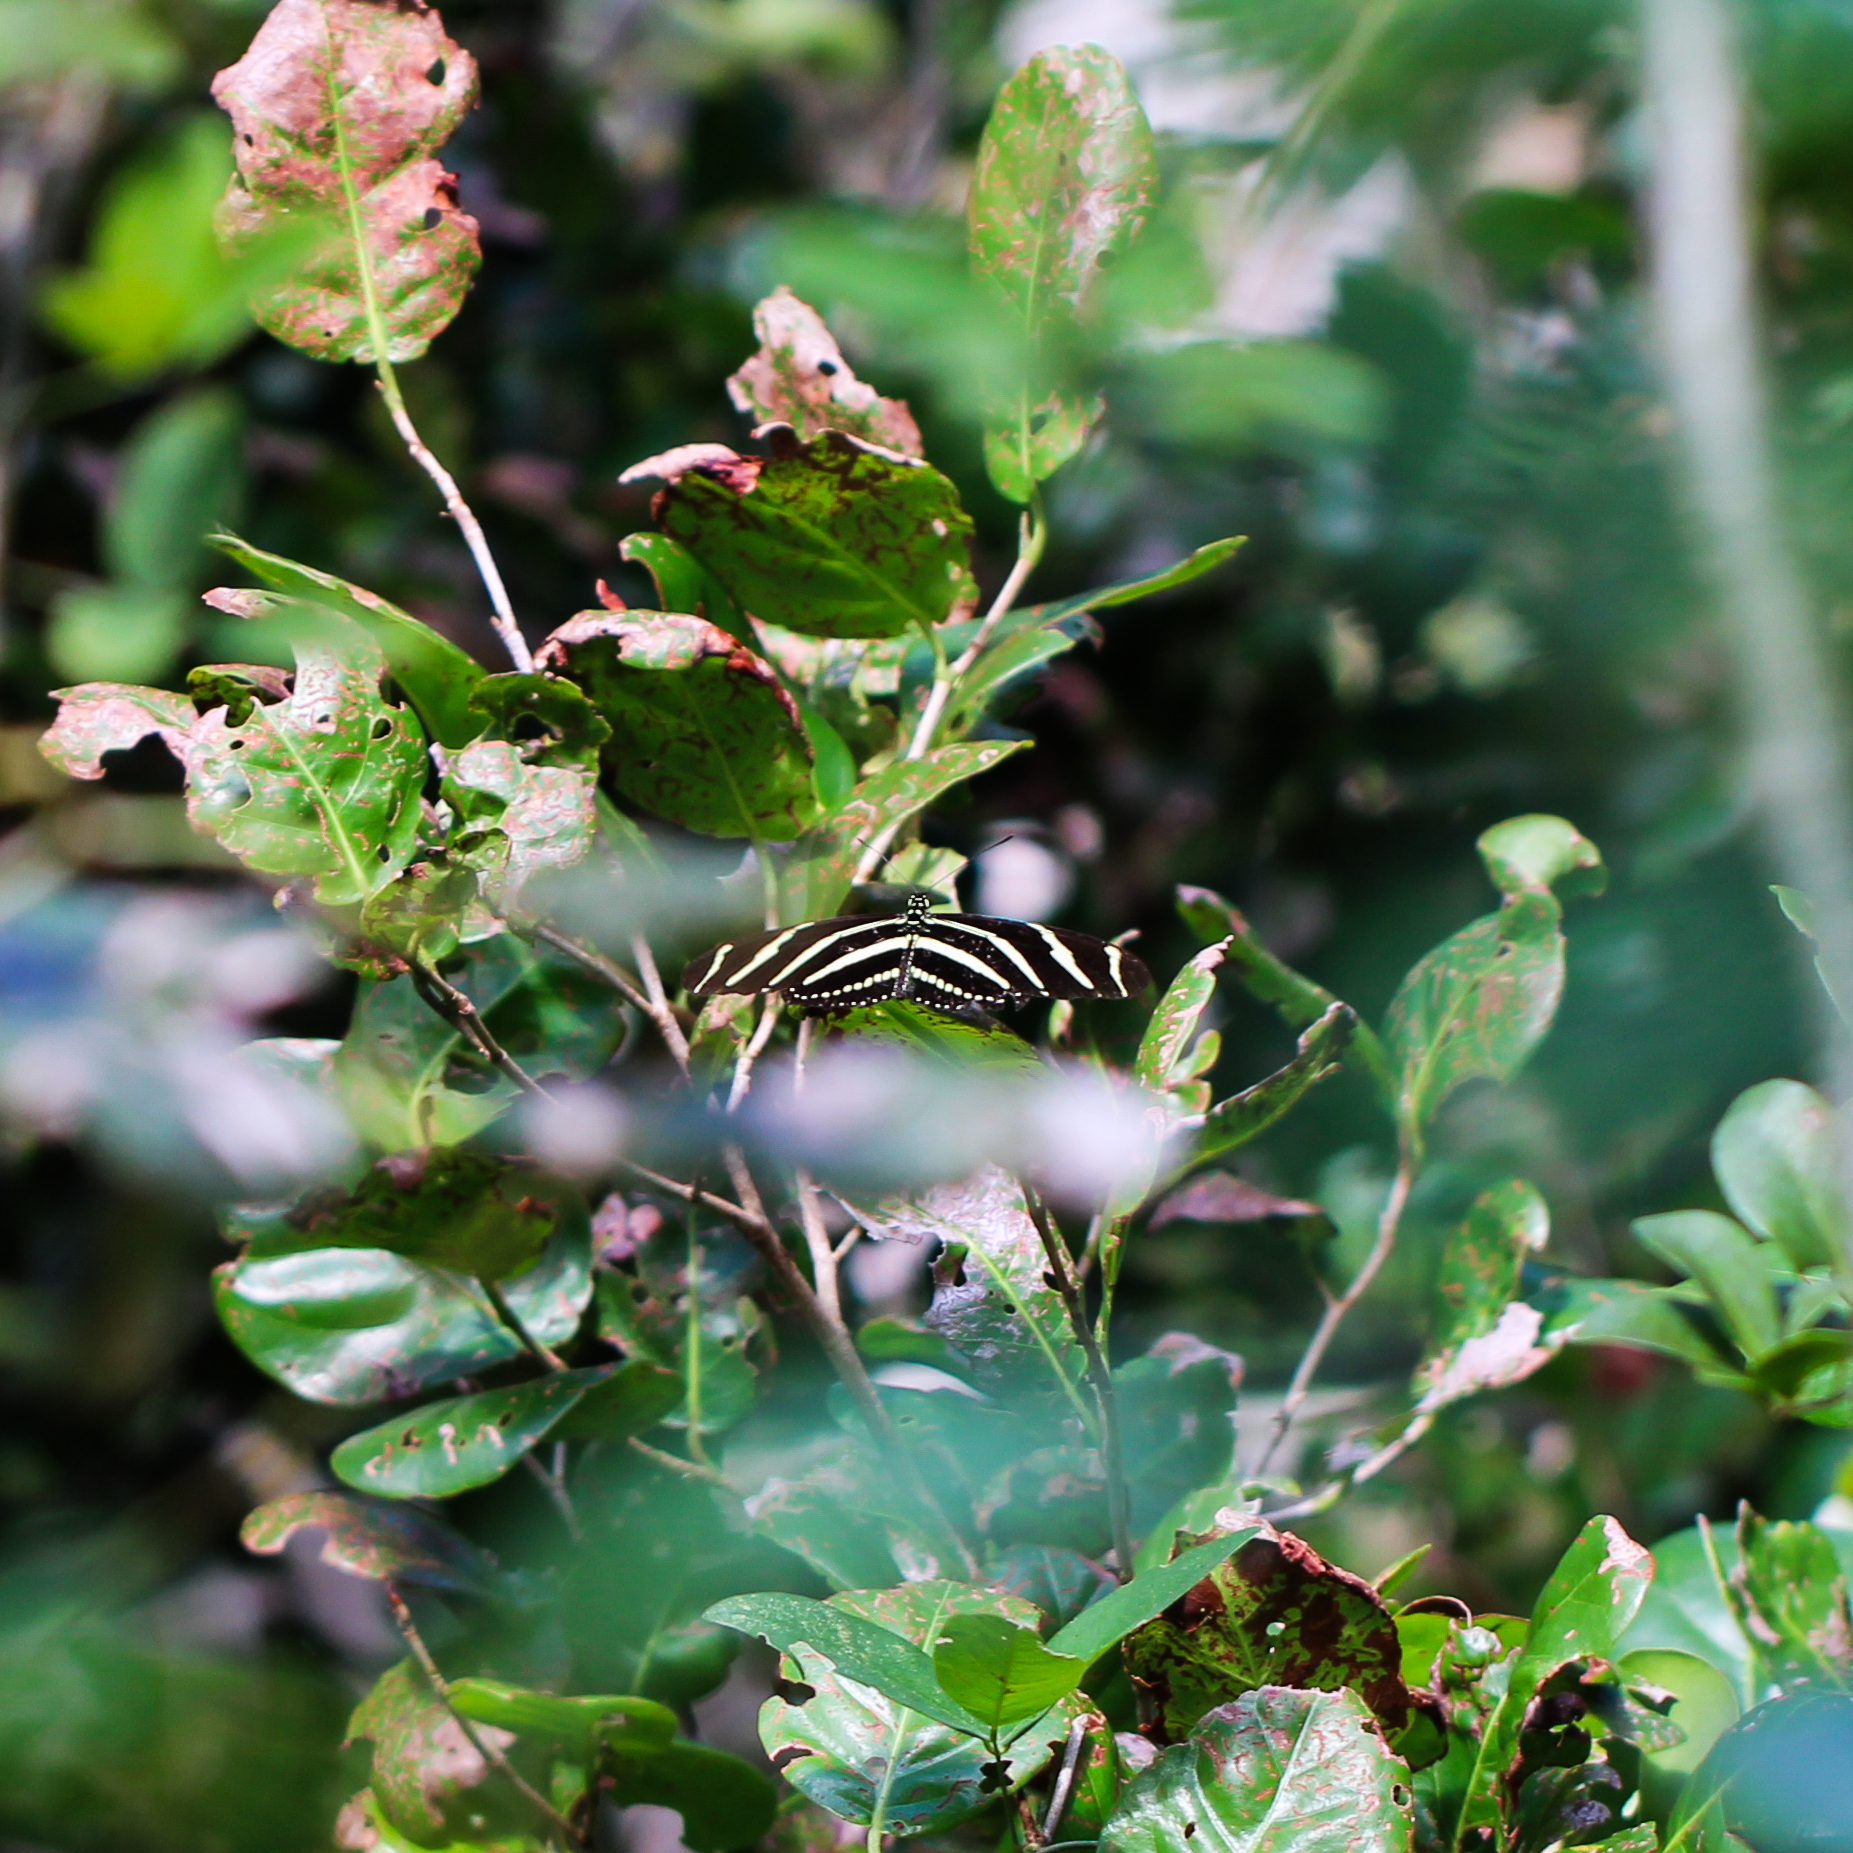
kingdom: Animalia
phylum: Arthropoda
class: Insecta
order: Lepidoptera
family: Nymphalidae
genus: Heliconius
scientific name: Heliconius charithonia
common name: Zebra long wing
